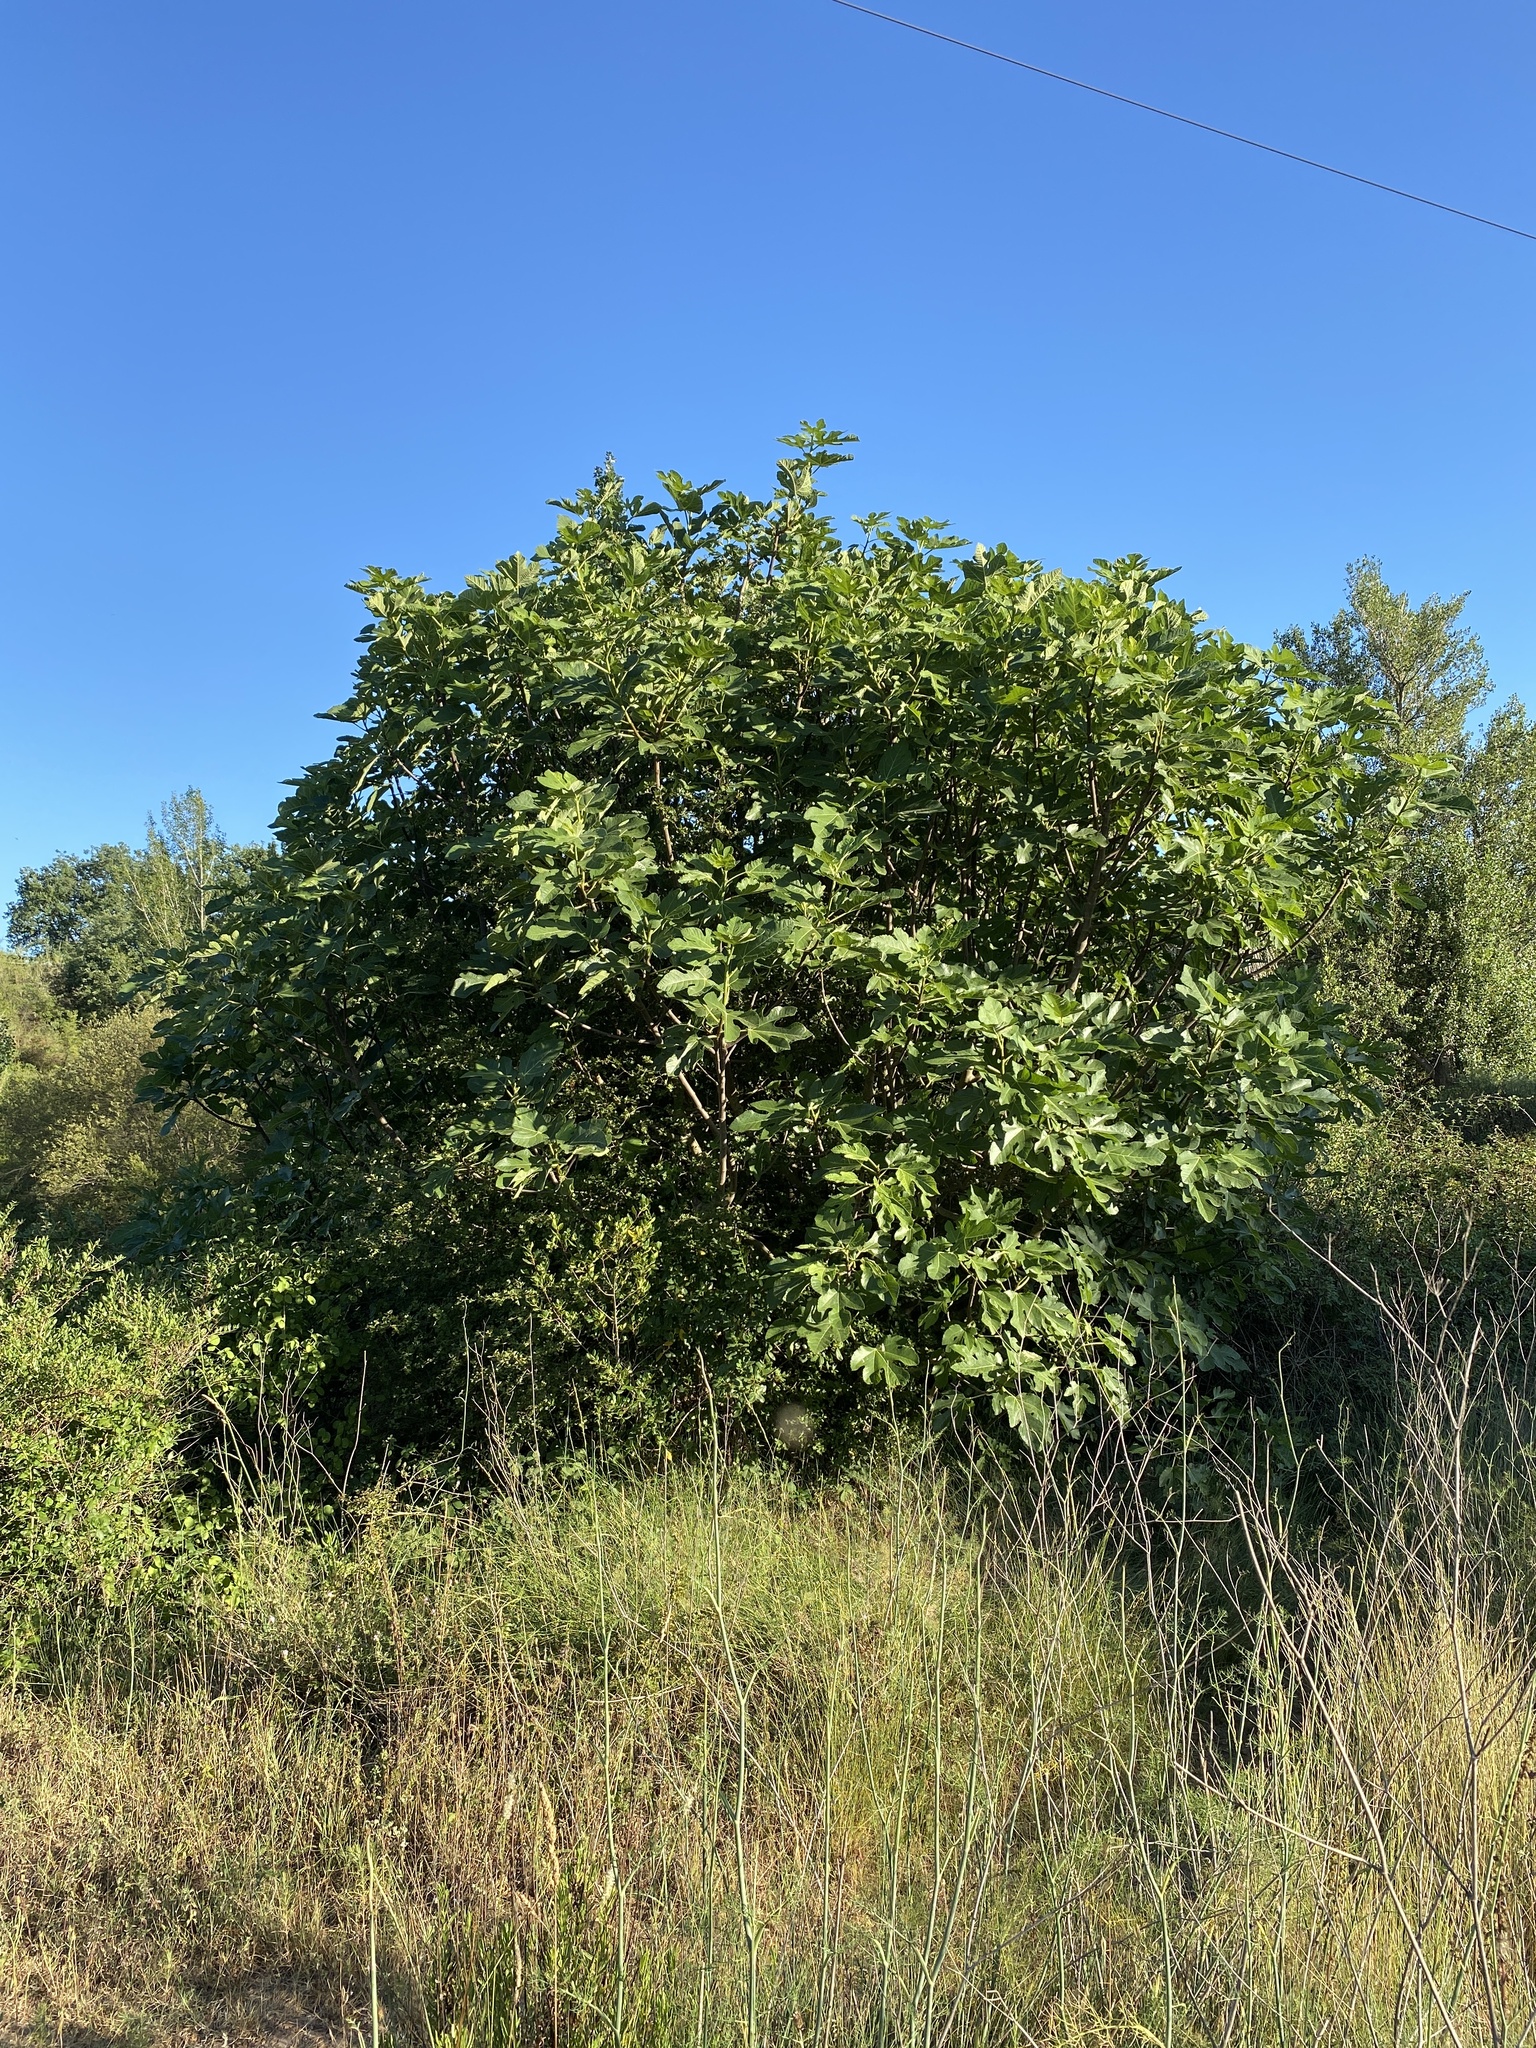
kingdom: Plantae
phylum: Tracheophyta
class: Magnoliopsida
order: Rosales
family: Moraceae
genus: Ficus
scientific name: Ficus carica
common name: Fig
